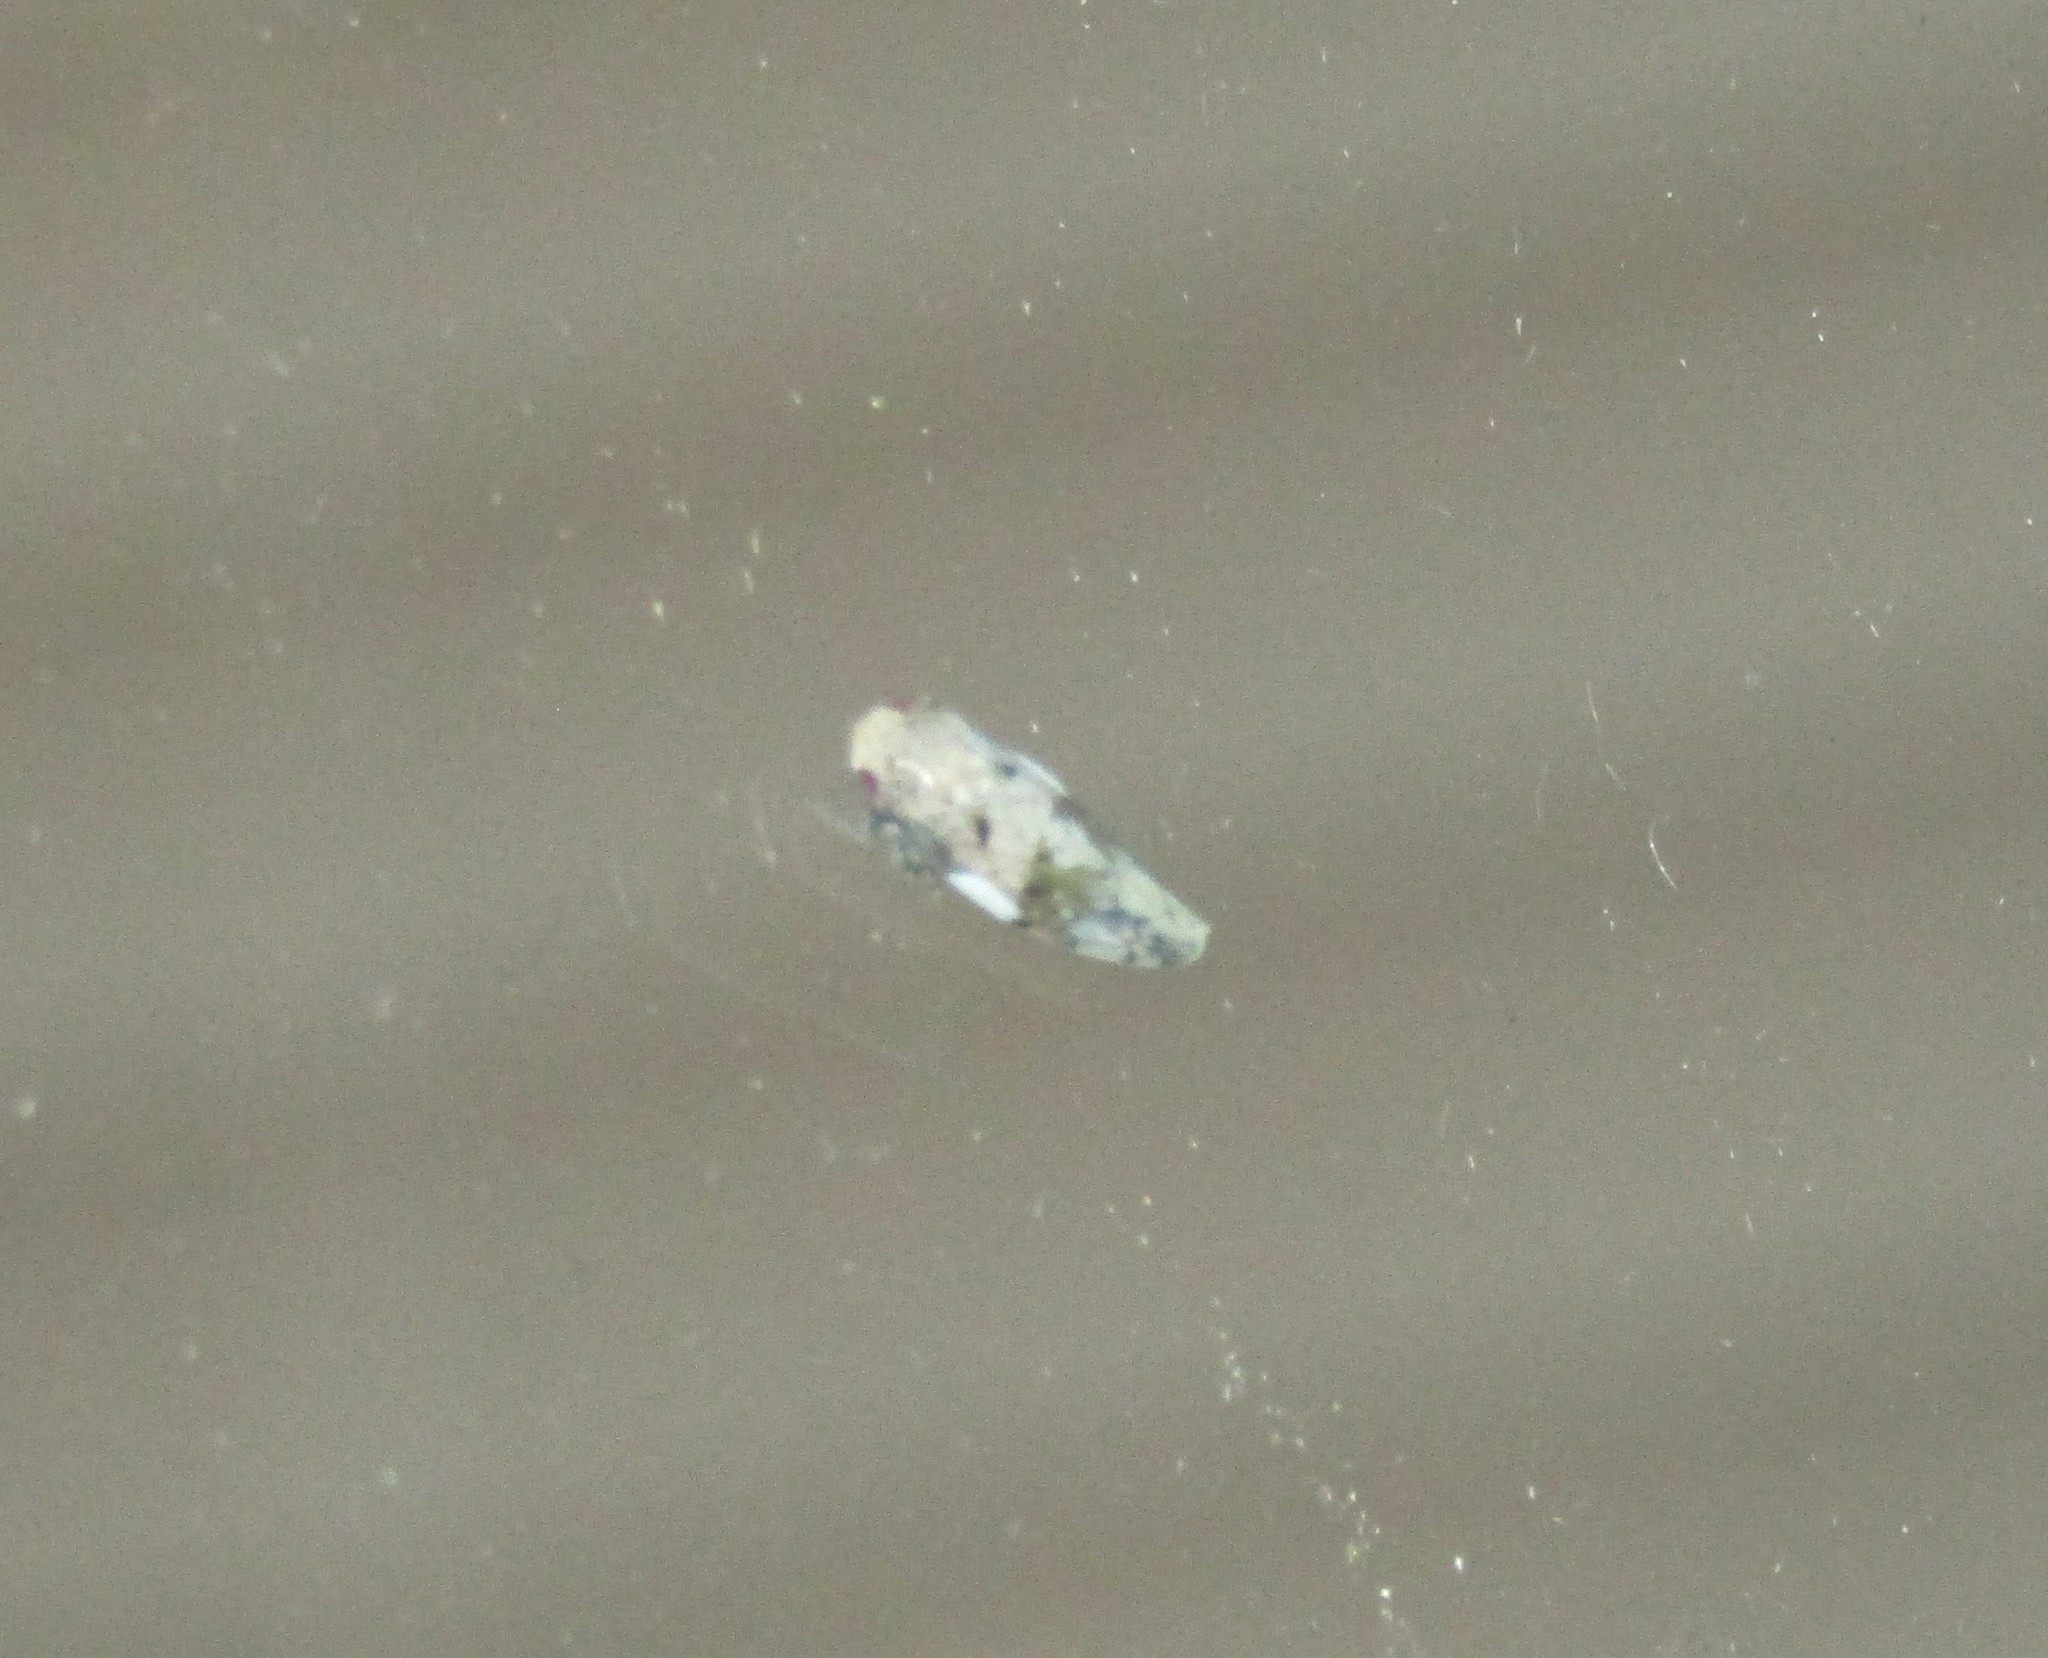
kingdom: Animalia
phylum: Arthropoda
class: Insecta
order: Hemiptera
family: Cicadellidae
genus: Menosoma
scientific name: Menosoma cinctum
